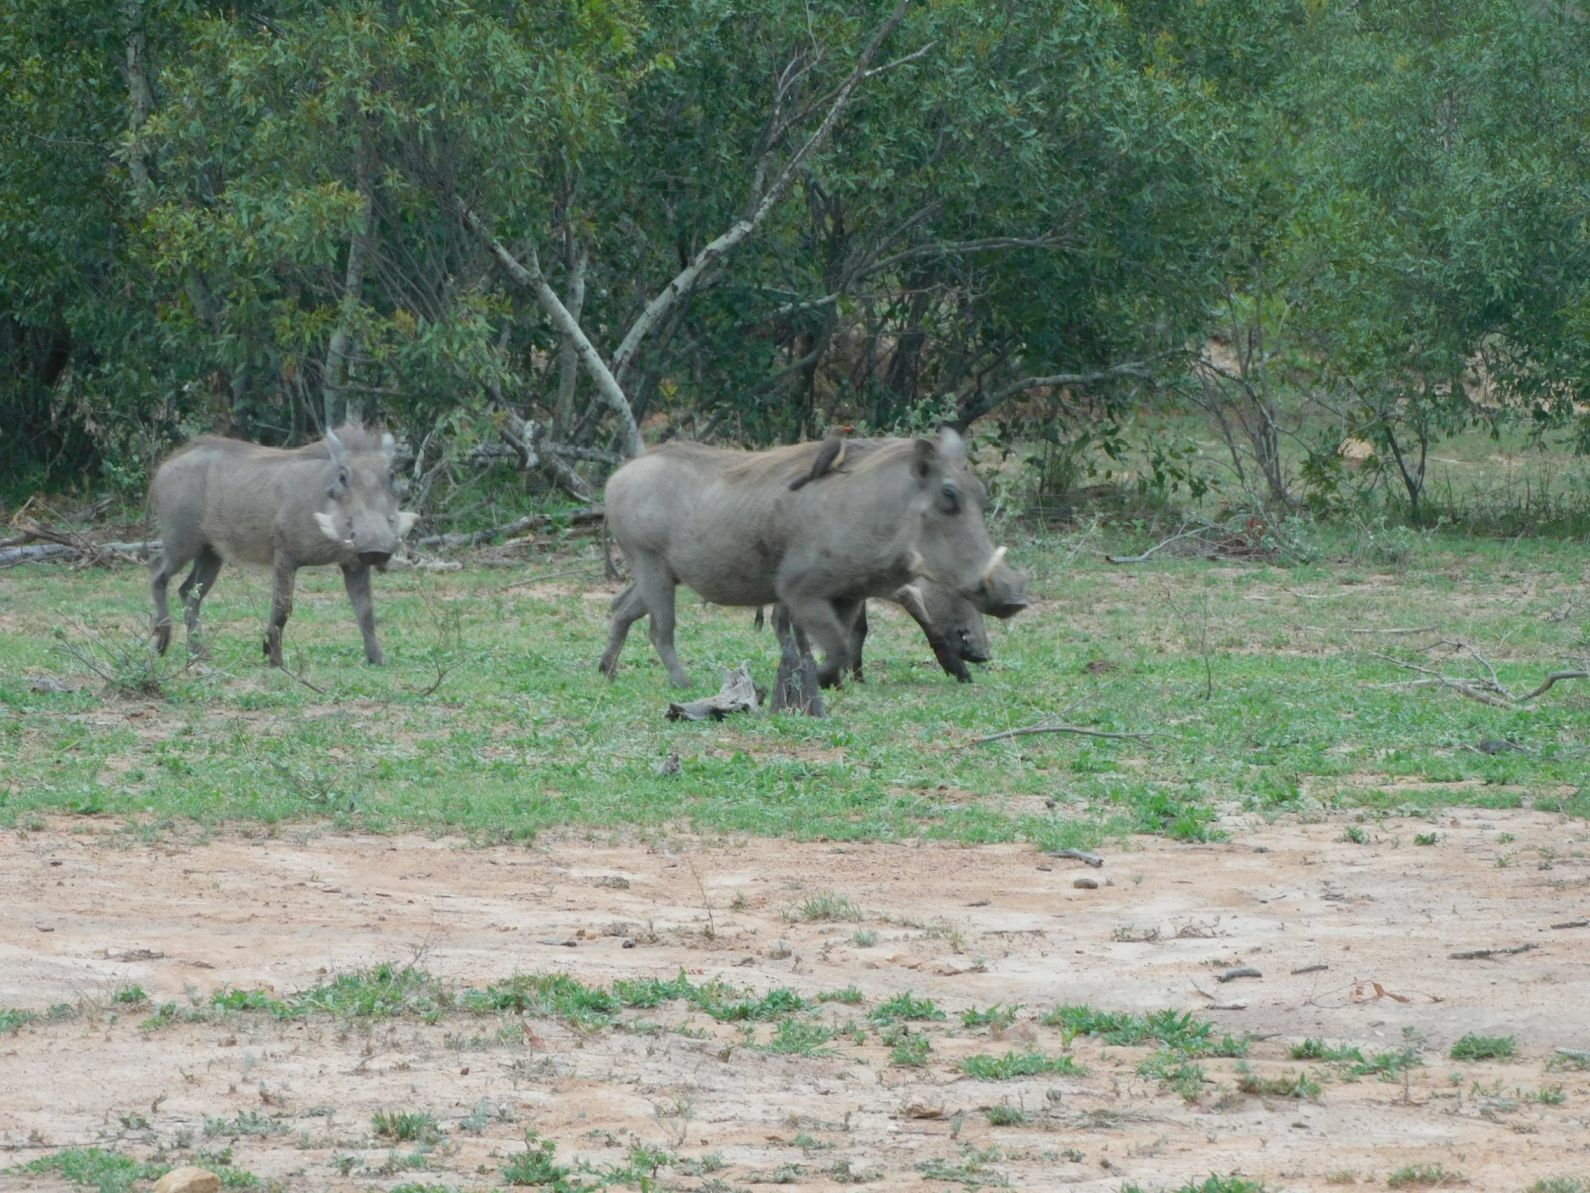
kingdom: Animalia
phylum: Chordata
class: Mammalia
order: Artiodactyla
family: Suidae
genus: Phacochoerus
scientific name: Phacochoerus africanus
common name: Common warthog
